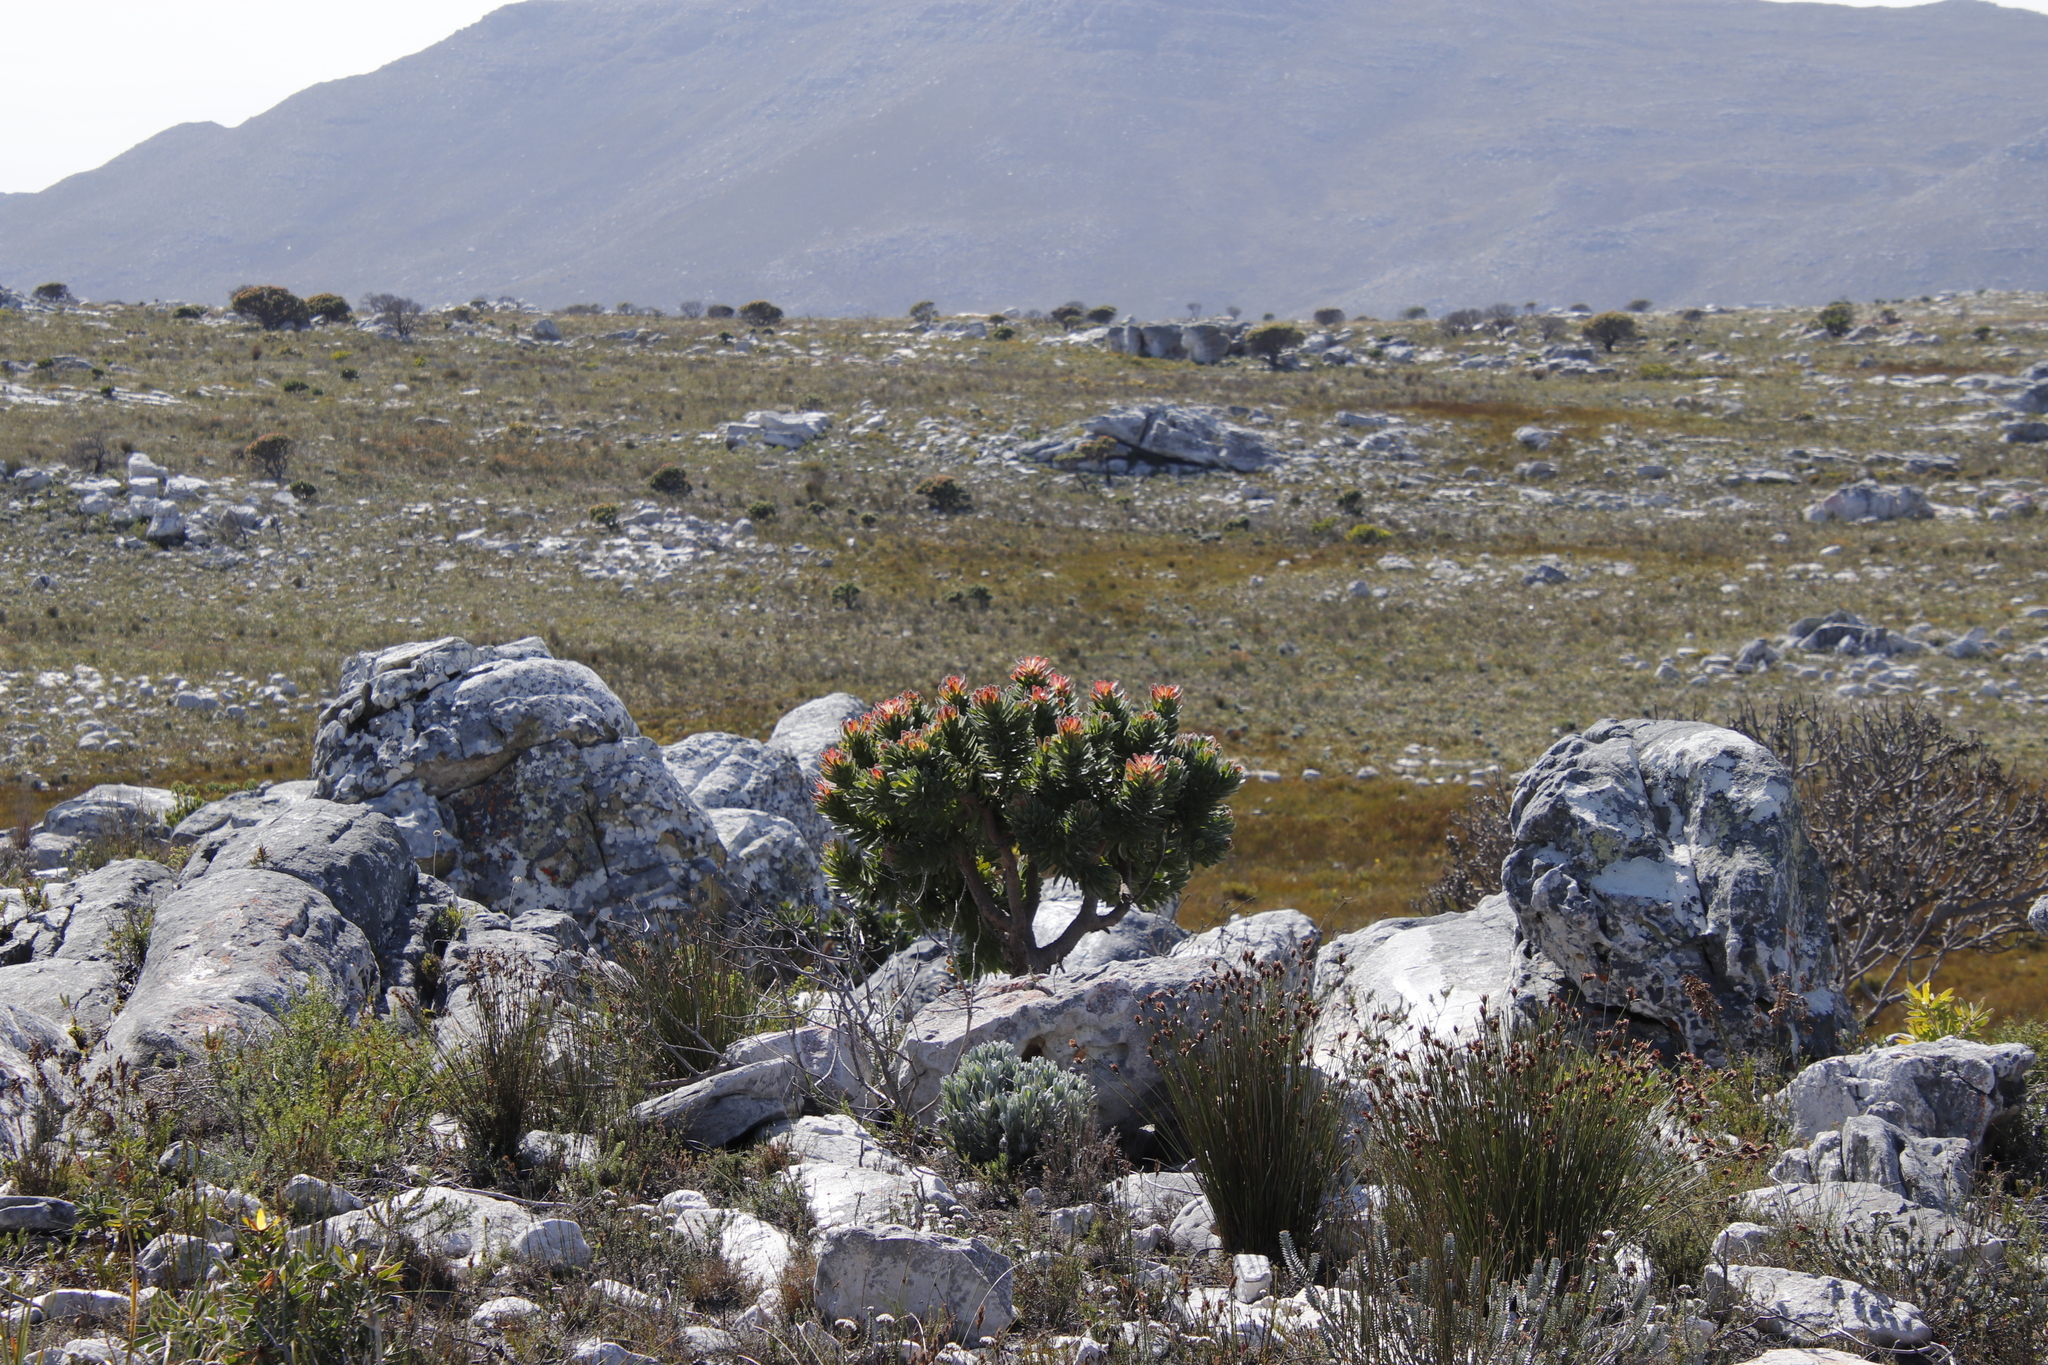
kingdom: Plantae
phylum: Tracheophyta
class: Magnoliopsida
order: Proteales
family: Proteaceae
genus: Mimetes
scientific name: Mimetes fimbriifolius
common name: Fringed bottlebrush
